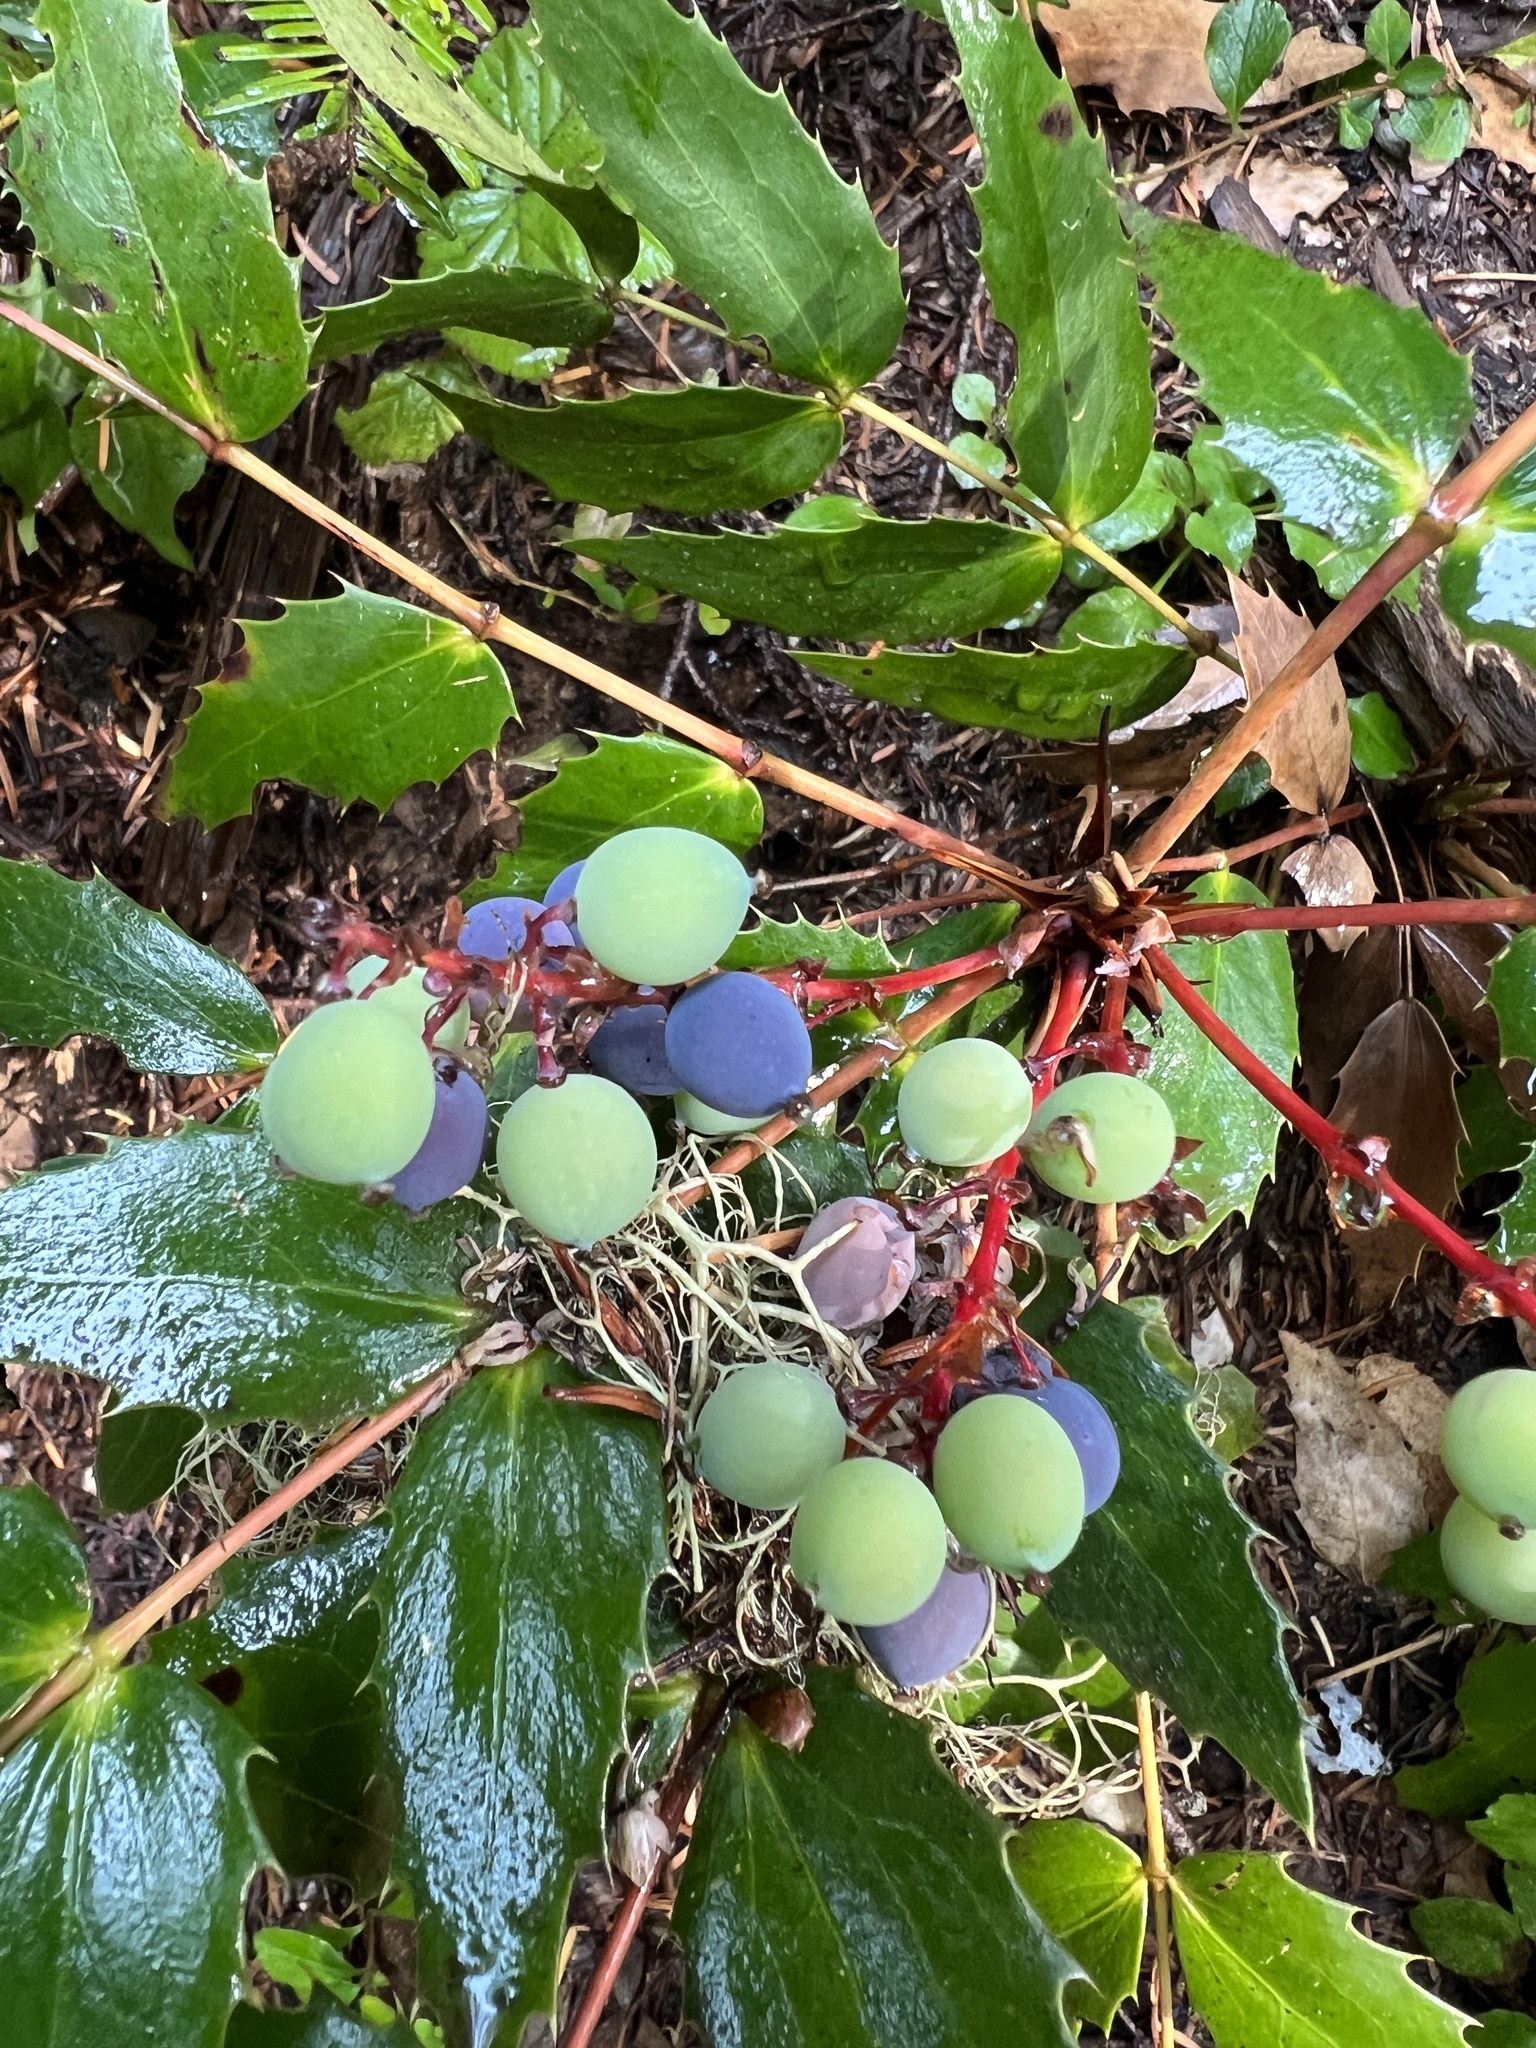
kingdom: Plantae
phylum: Tracheophyta
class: Magnoliopsida
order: Ranunculales
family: Berberidaceae
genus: Mahonia
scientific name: Mahonia nervosa
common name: Cascade oregon-grape
